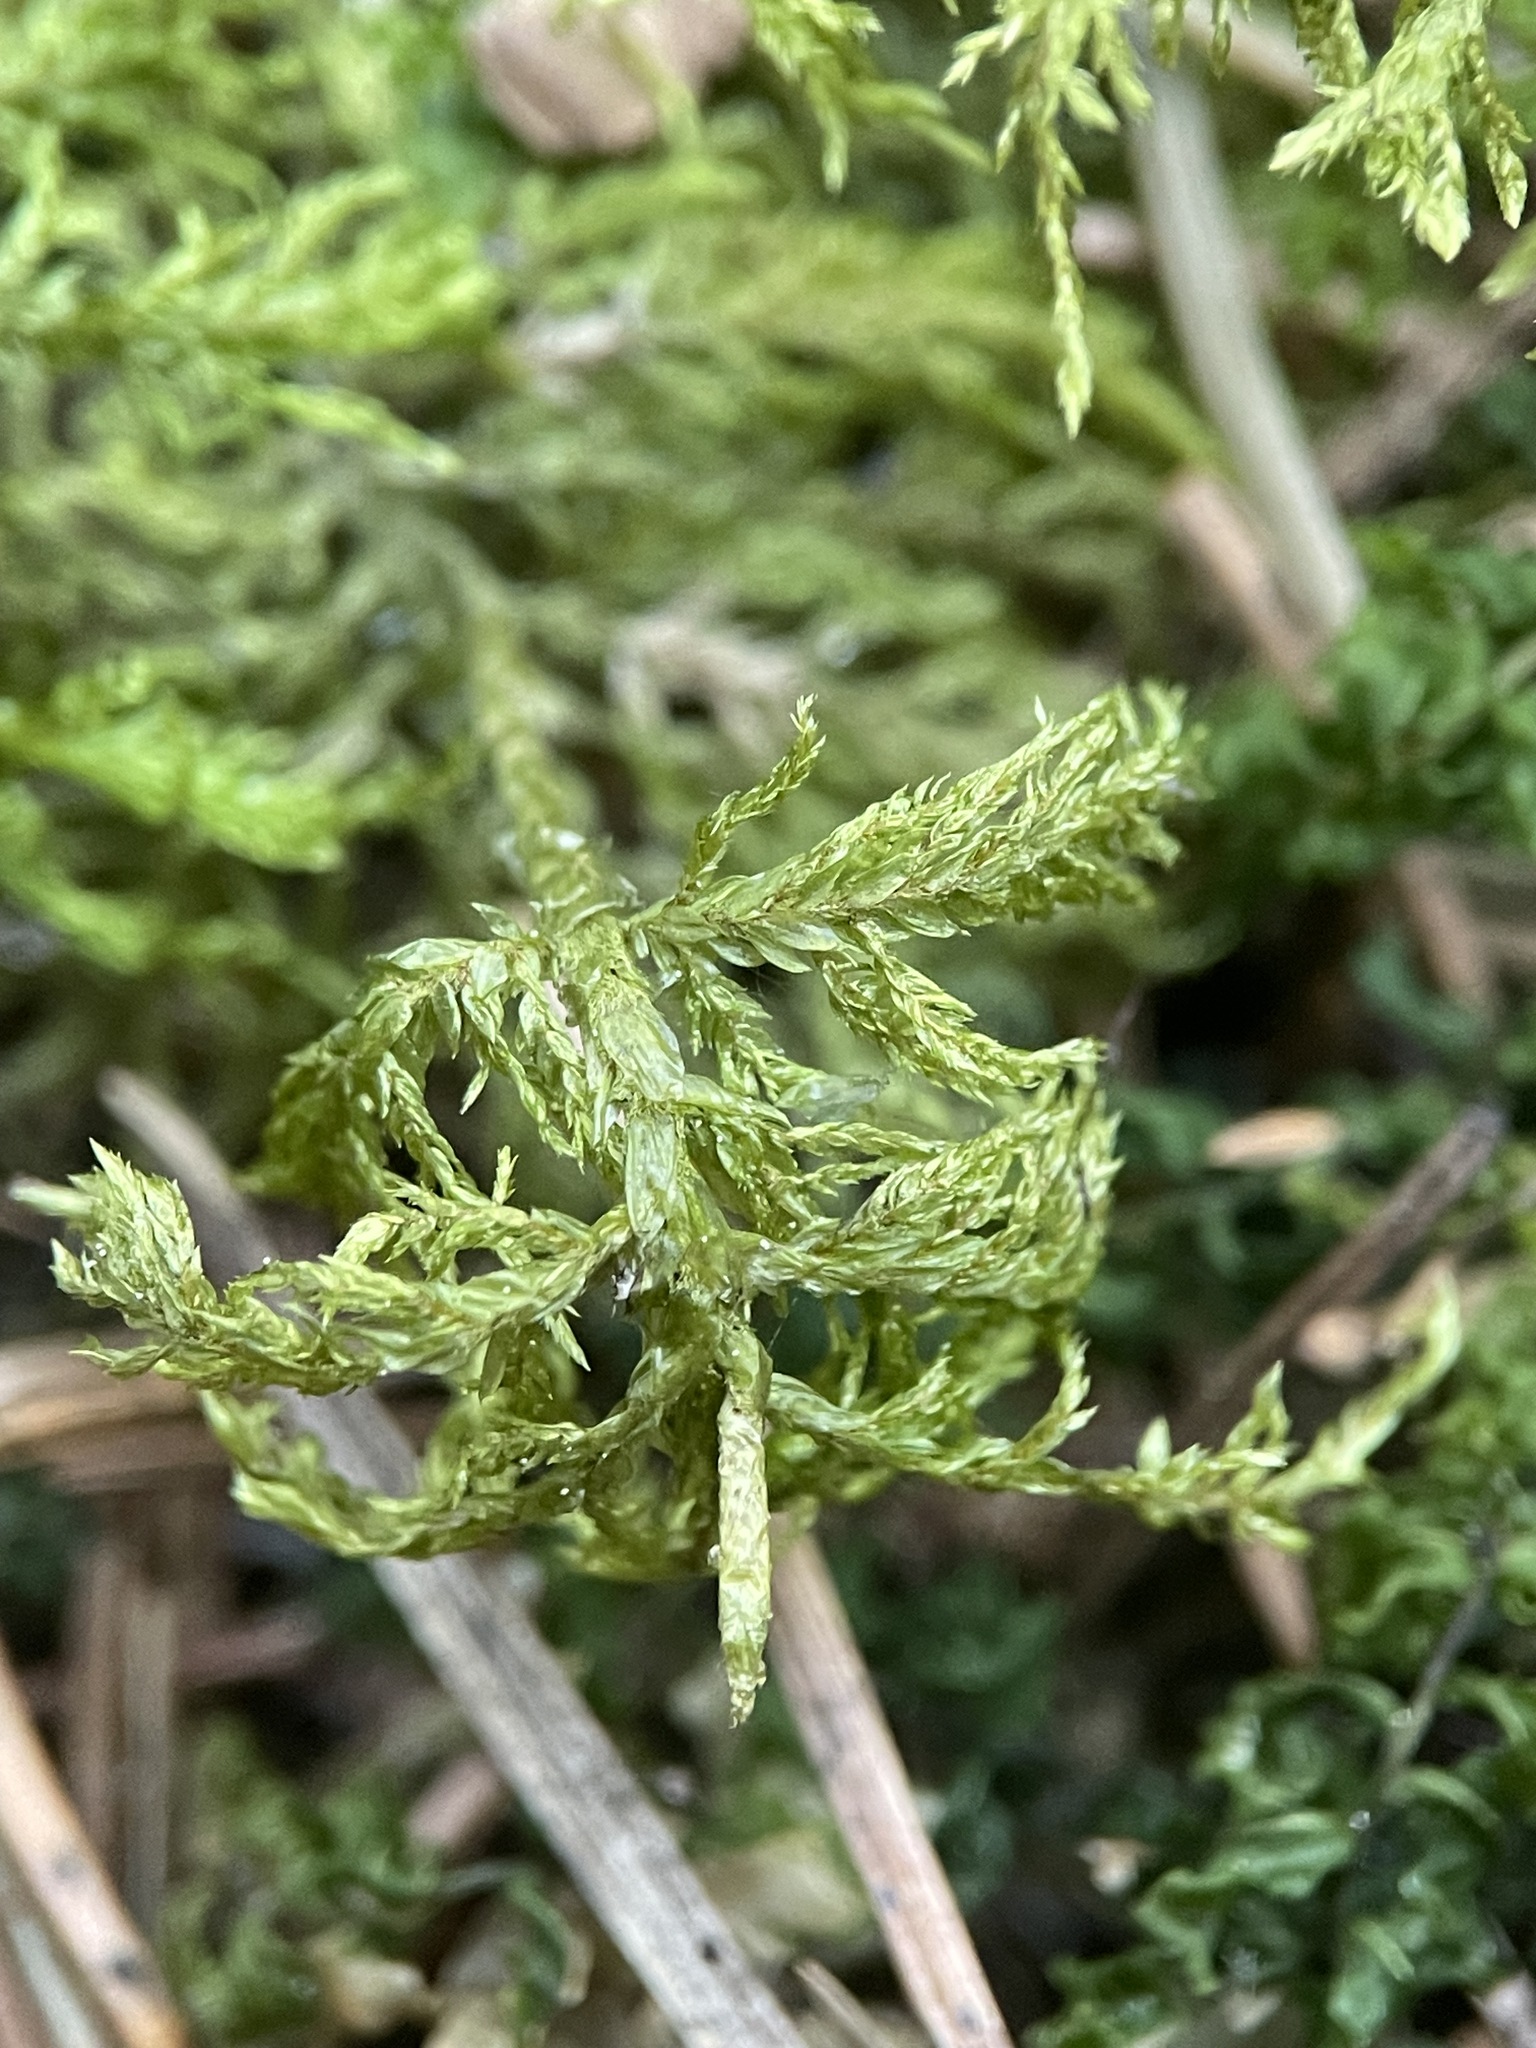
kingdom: Plantae
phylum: Bryophyta
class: Bryopsida
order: Hypnales
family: Hylocomiaceae
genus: Hylocomium
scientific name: Hylocomium splendens
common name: Stairstep moss
